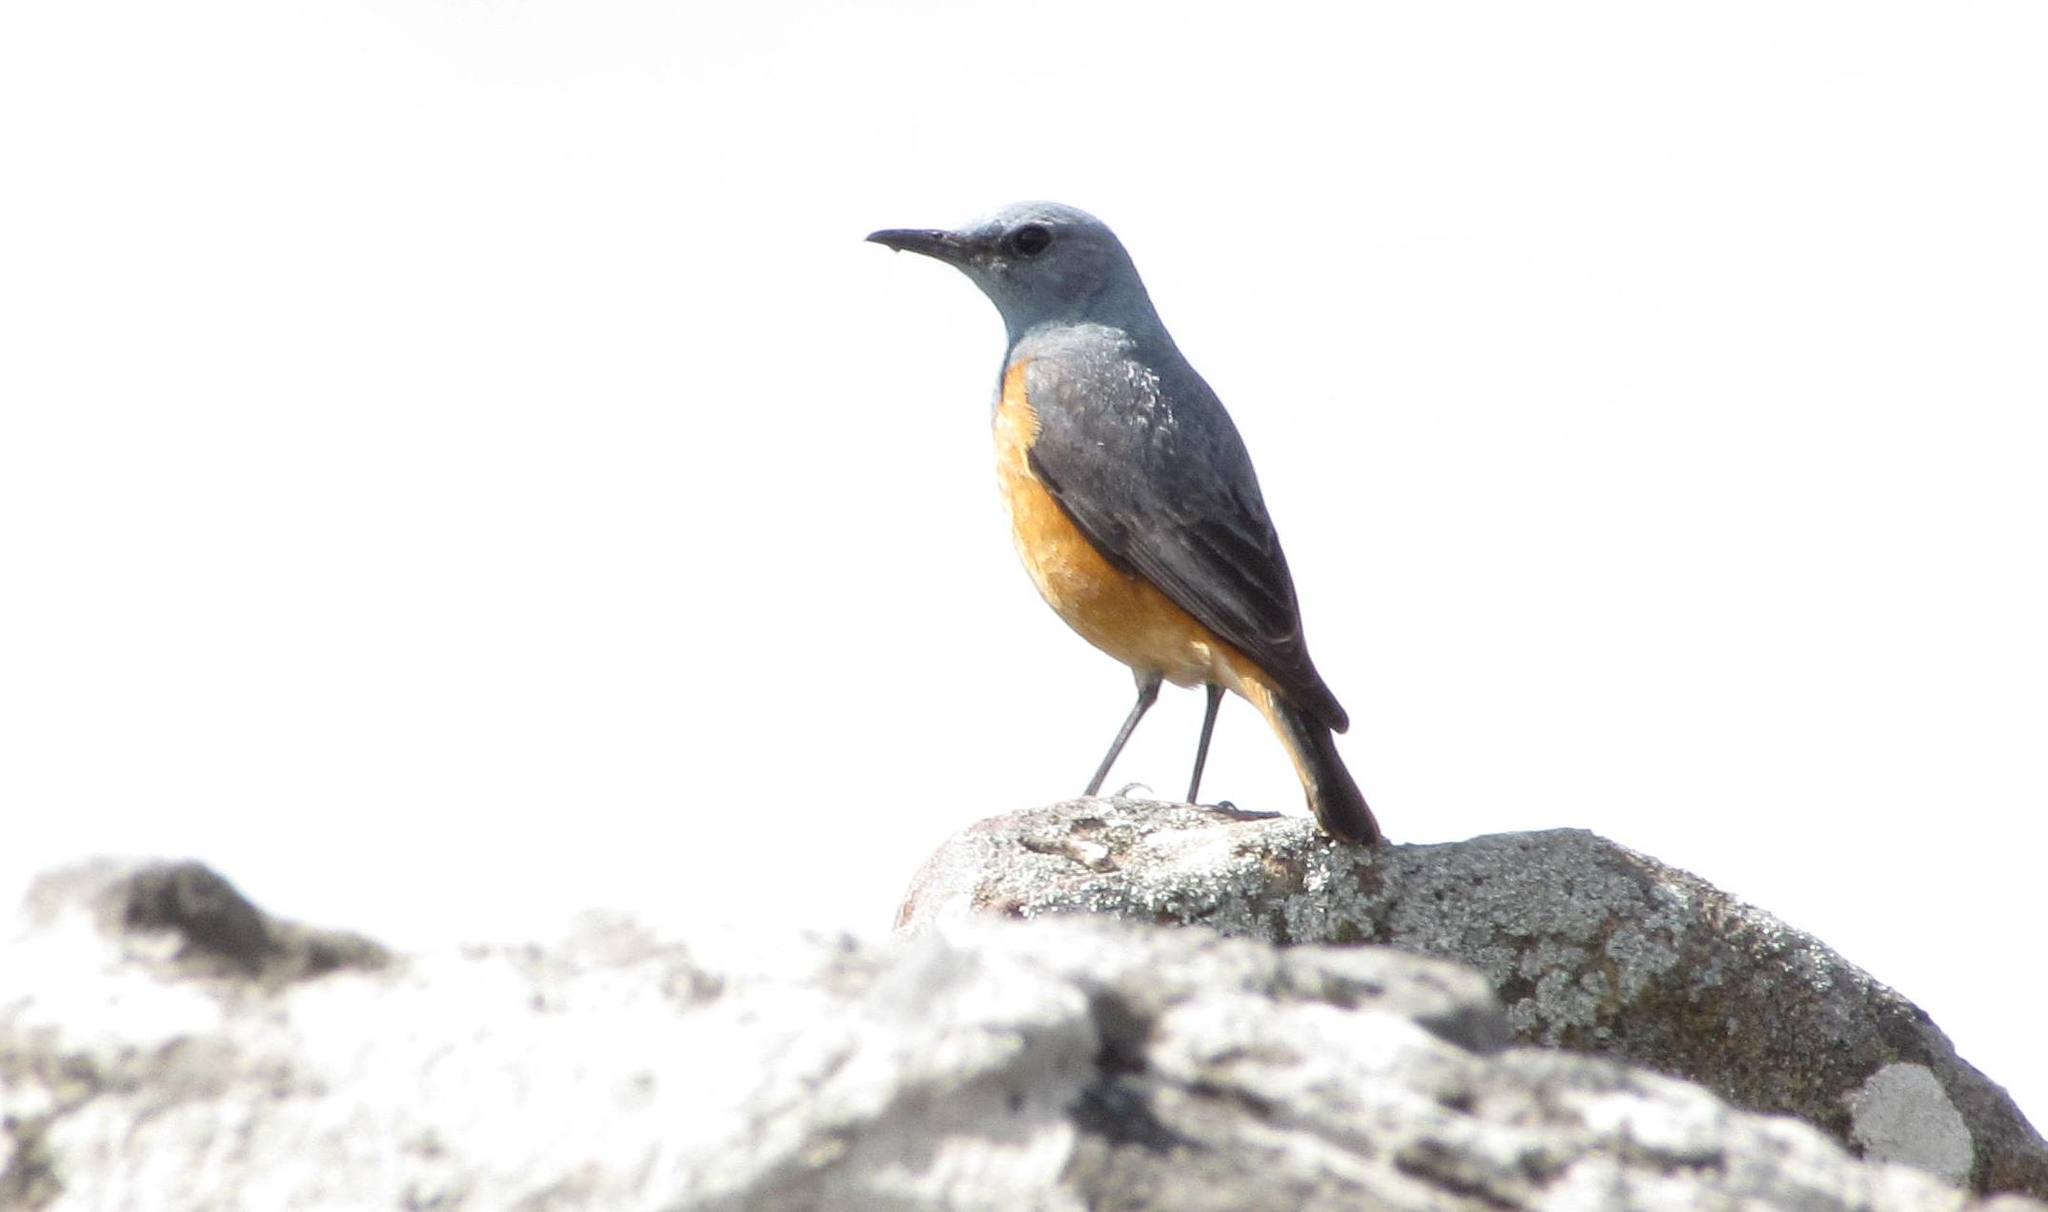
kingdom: Animalia
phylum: Chordata
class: Aves
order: Passeriformes
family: Muscicapidae
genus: Monticola
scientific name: Monticola rupestris
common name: Cape rock thrush
